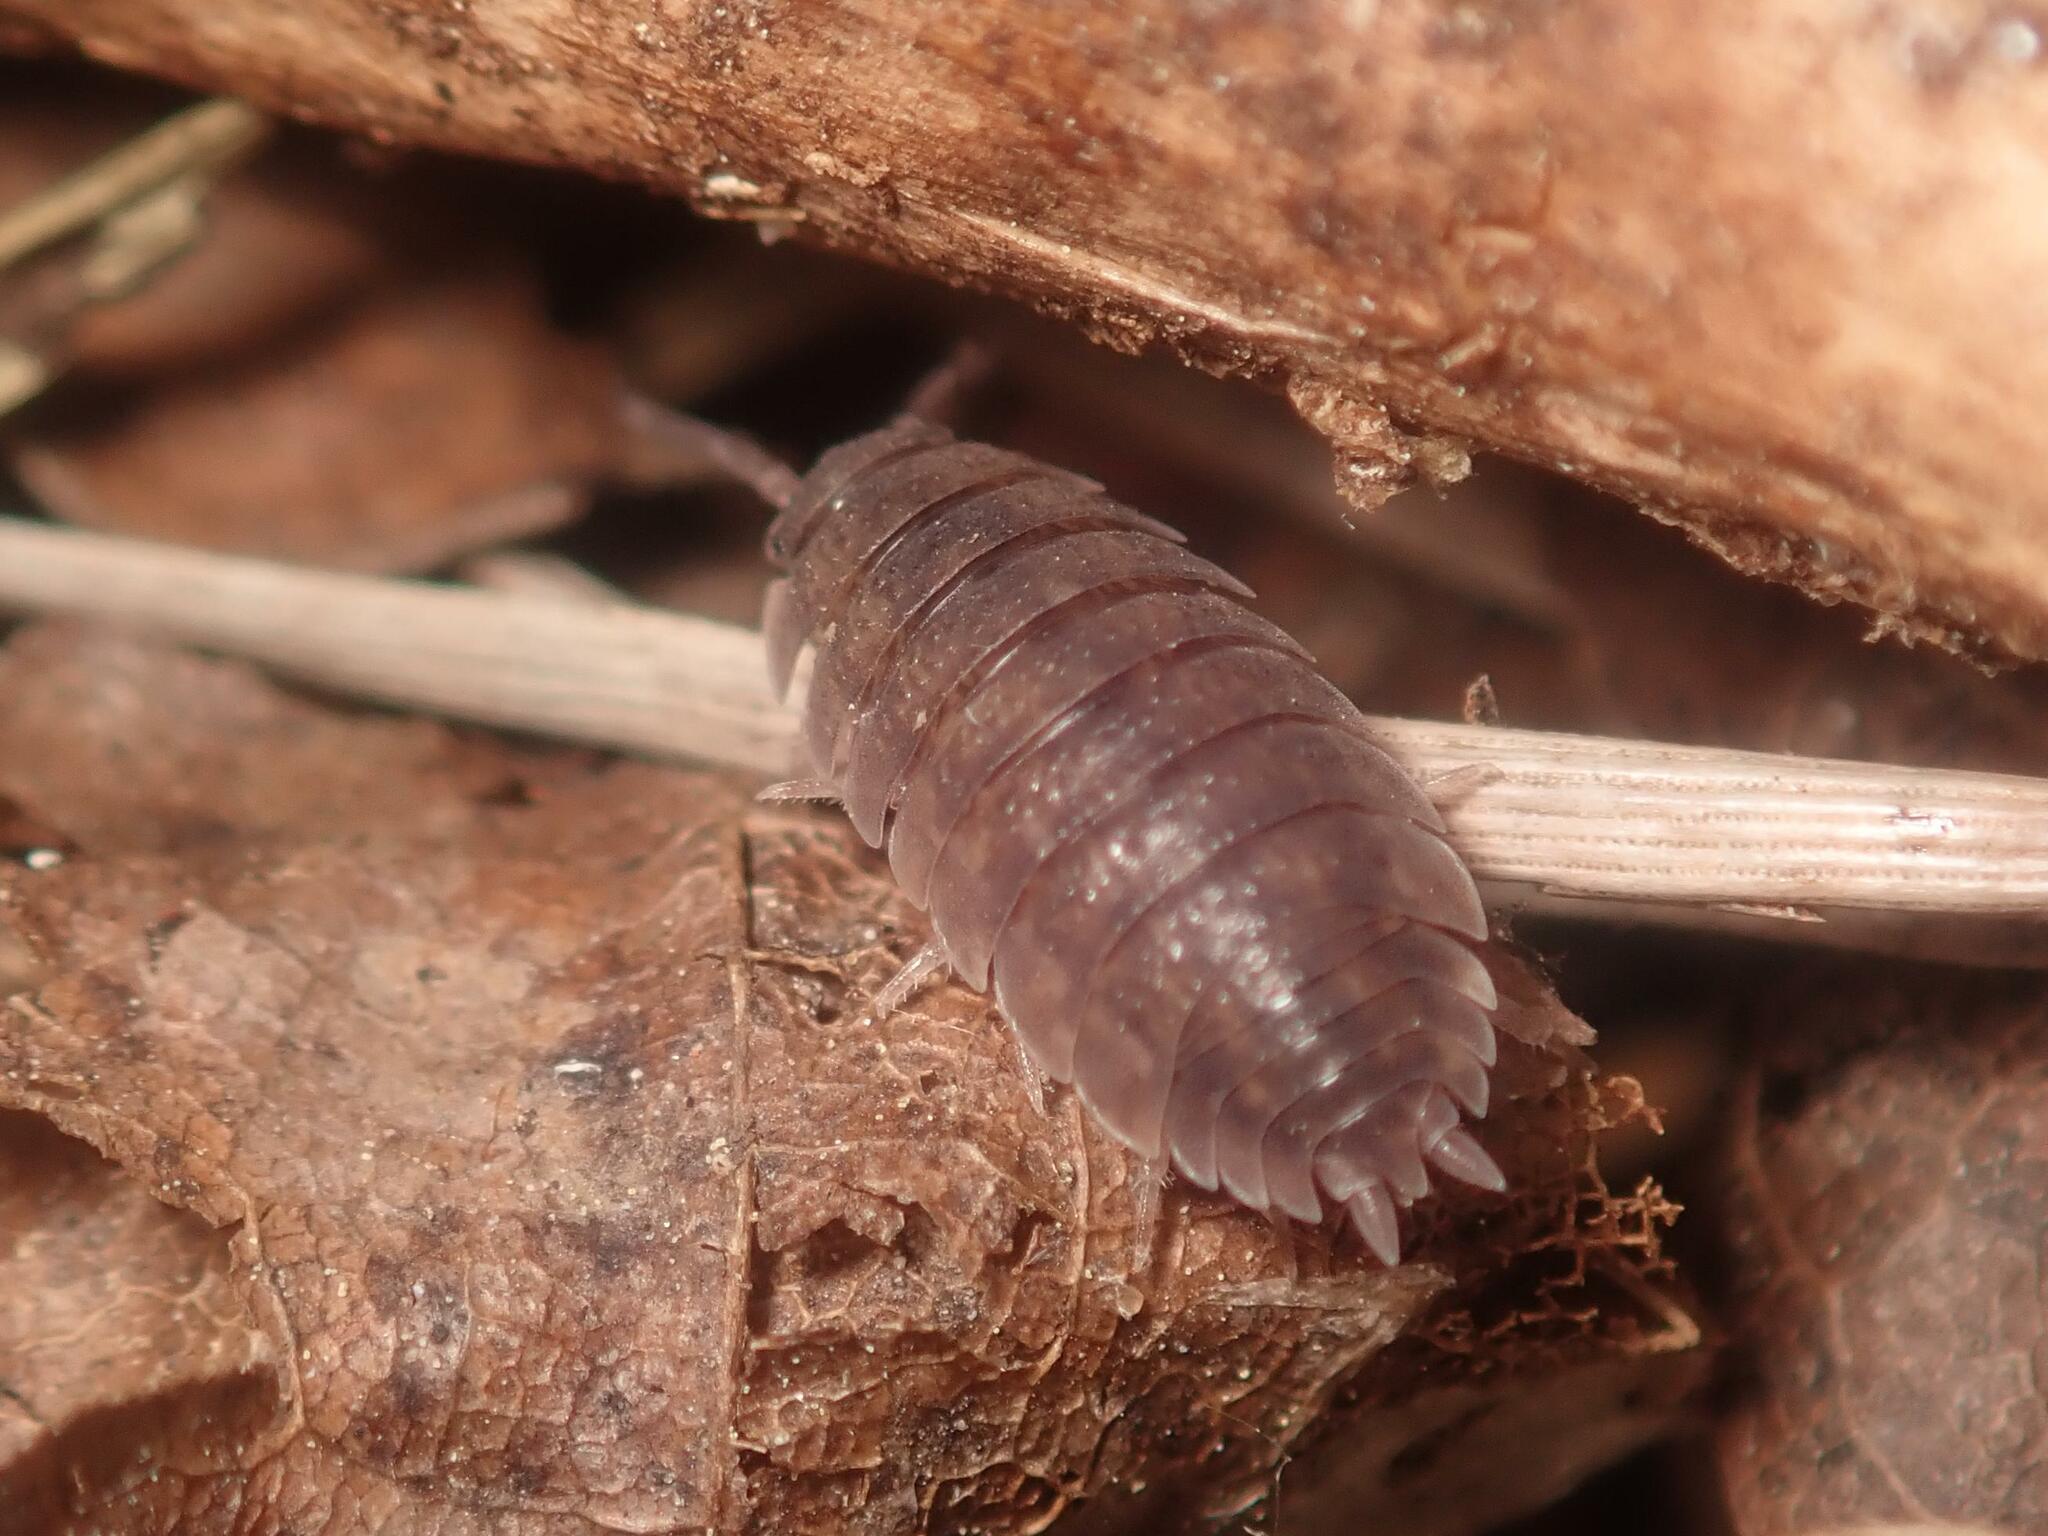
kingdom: Animalia
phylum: Arthropoda
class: Malacostraca
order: Isopoda
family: Porcellionidae
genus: Porcellio
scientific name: Porcellio scaber
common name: Common rough woodlouse
